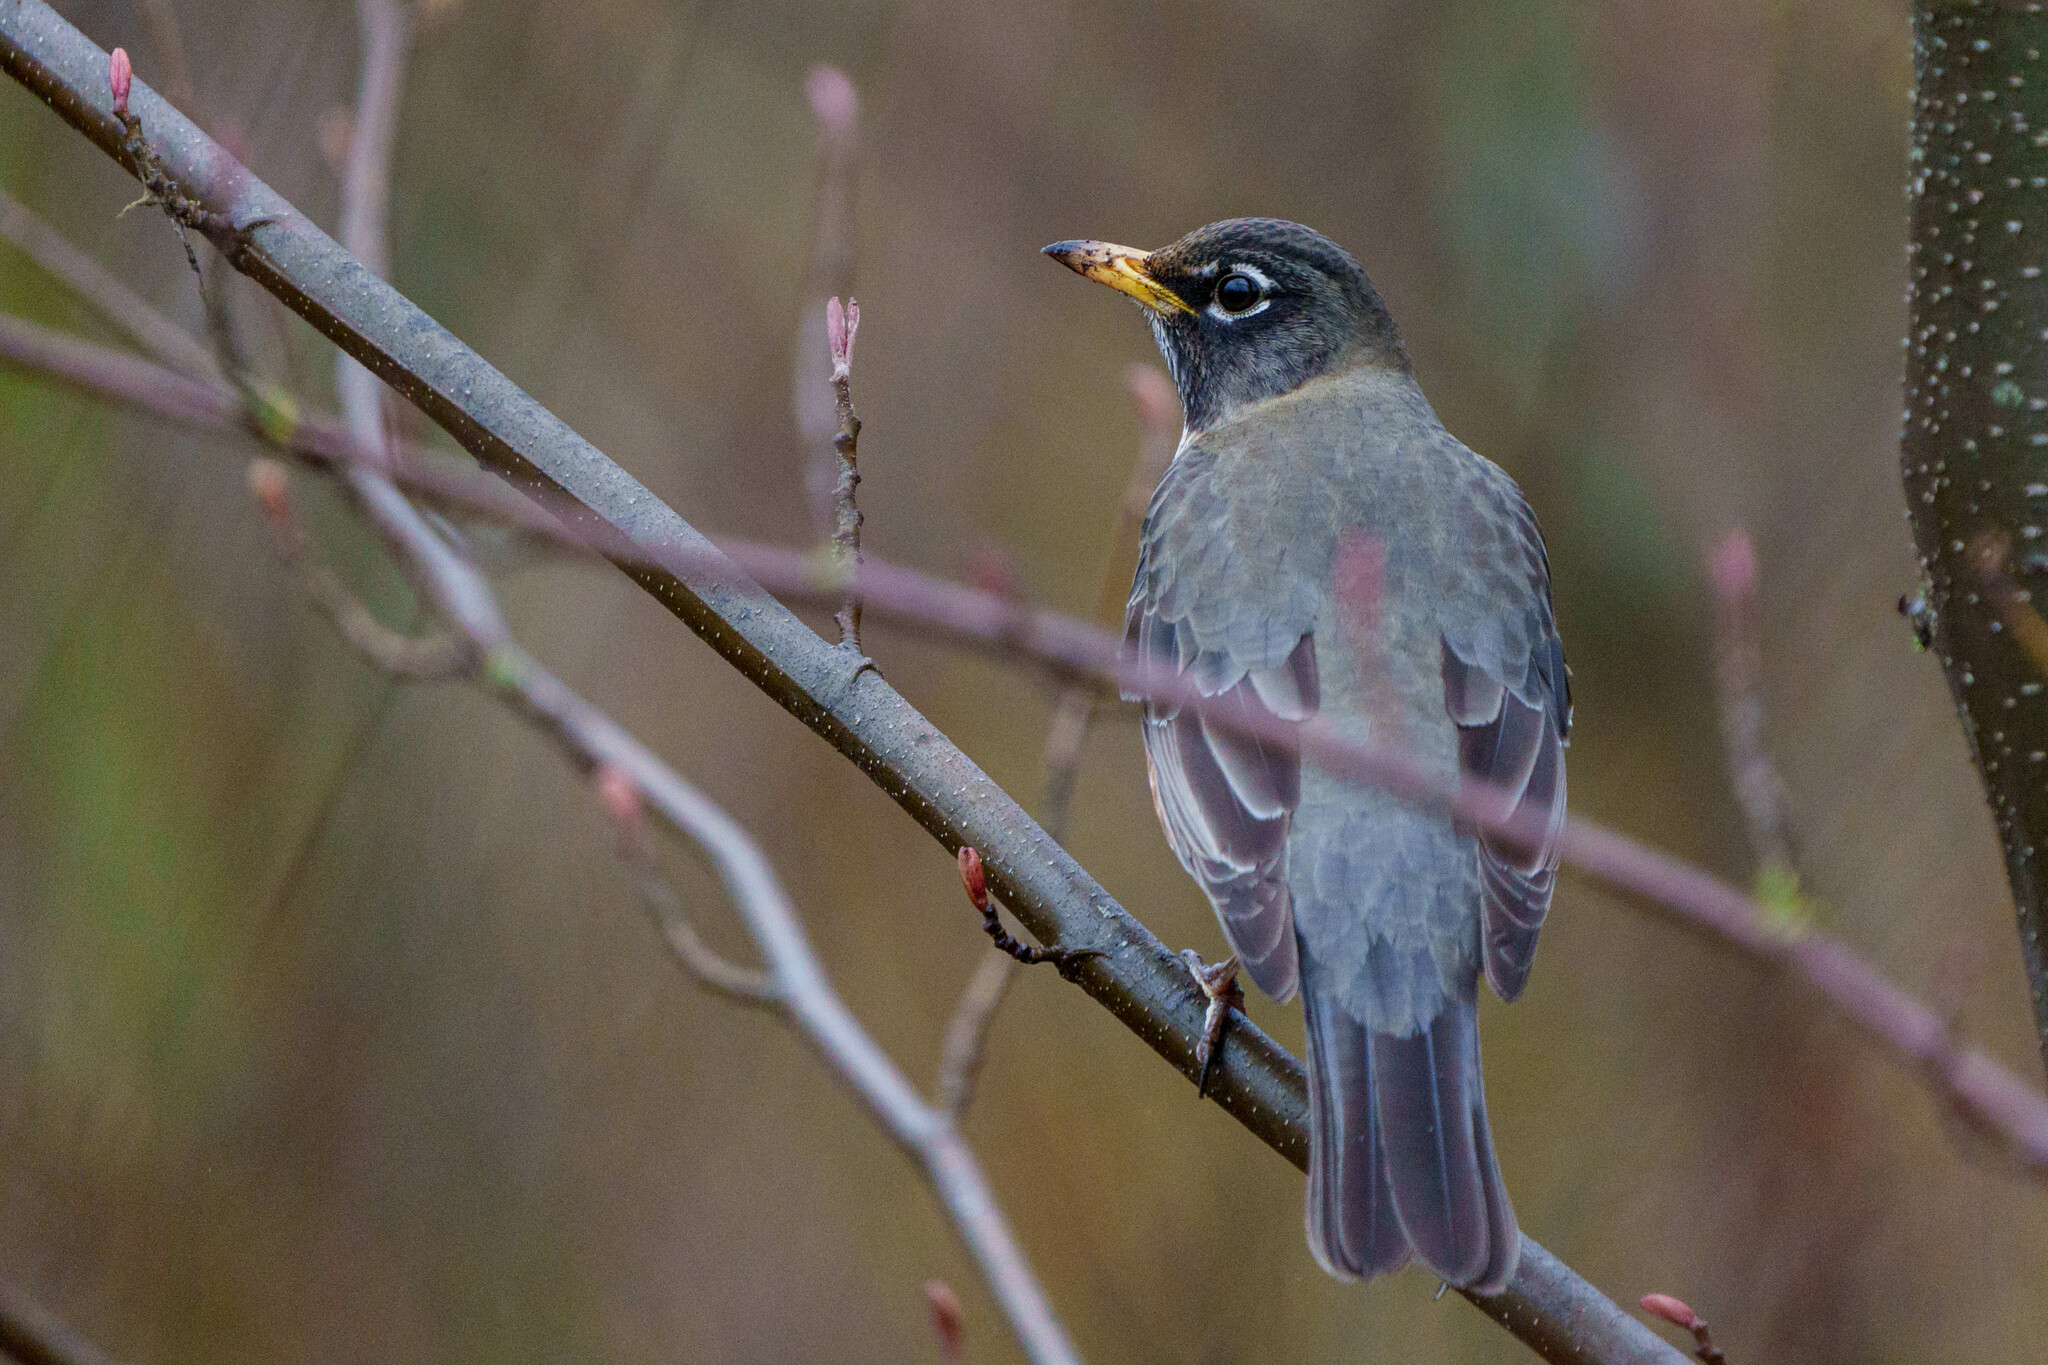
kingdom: Animalia
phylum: Chordata
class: Aves
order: Passeriformes
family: Turdidae
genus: Turdus
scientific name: Turdus migratorius
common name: American robin
